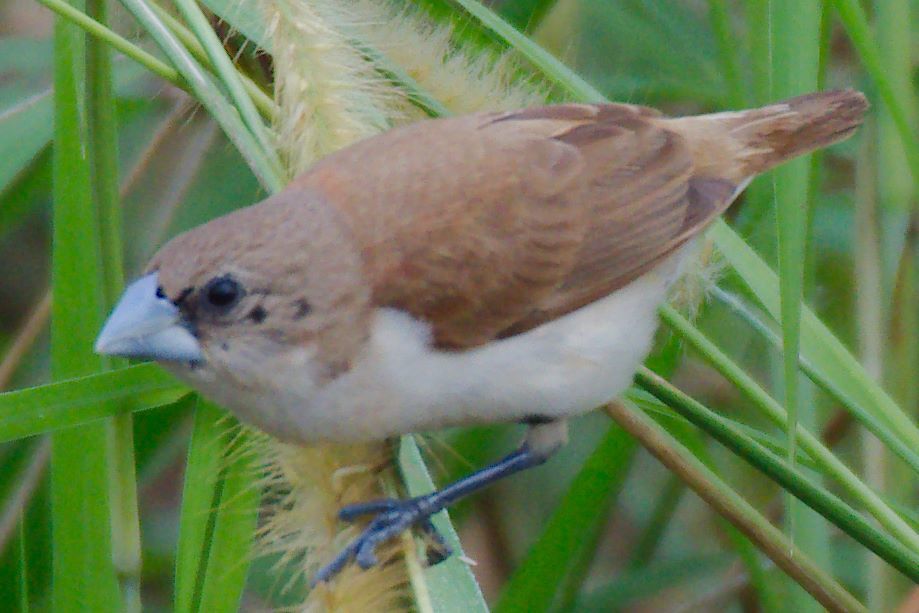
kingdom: Animalia
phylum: Chordata
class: Aves
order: Passeriformes
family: Estrildidae
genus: Lonchura
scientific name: Lonchura malacca
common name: Tricolored munia
